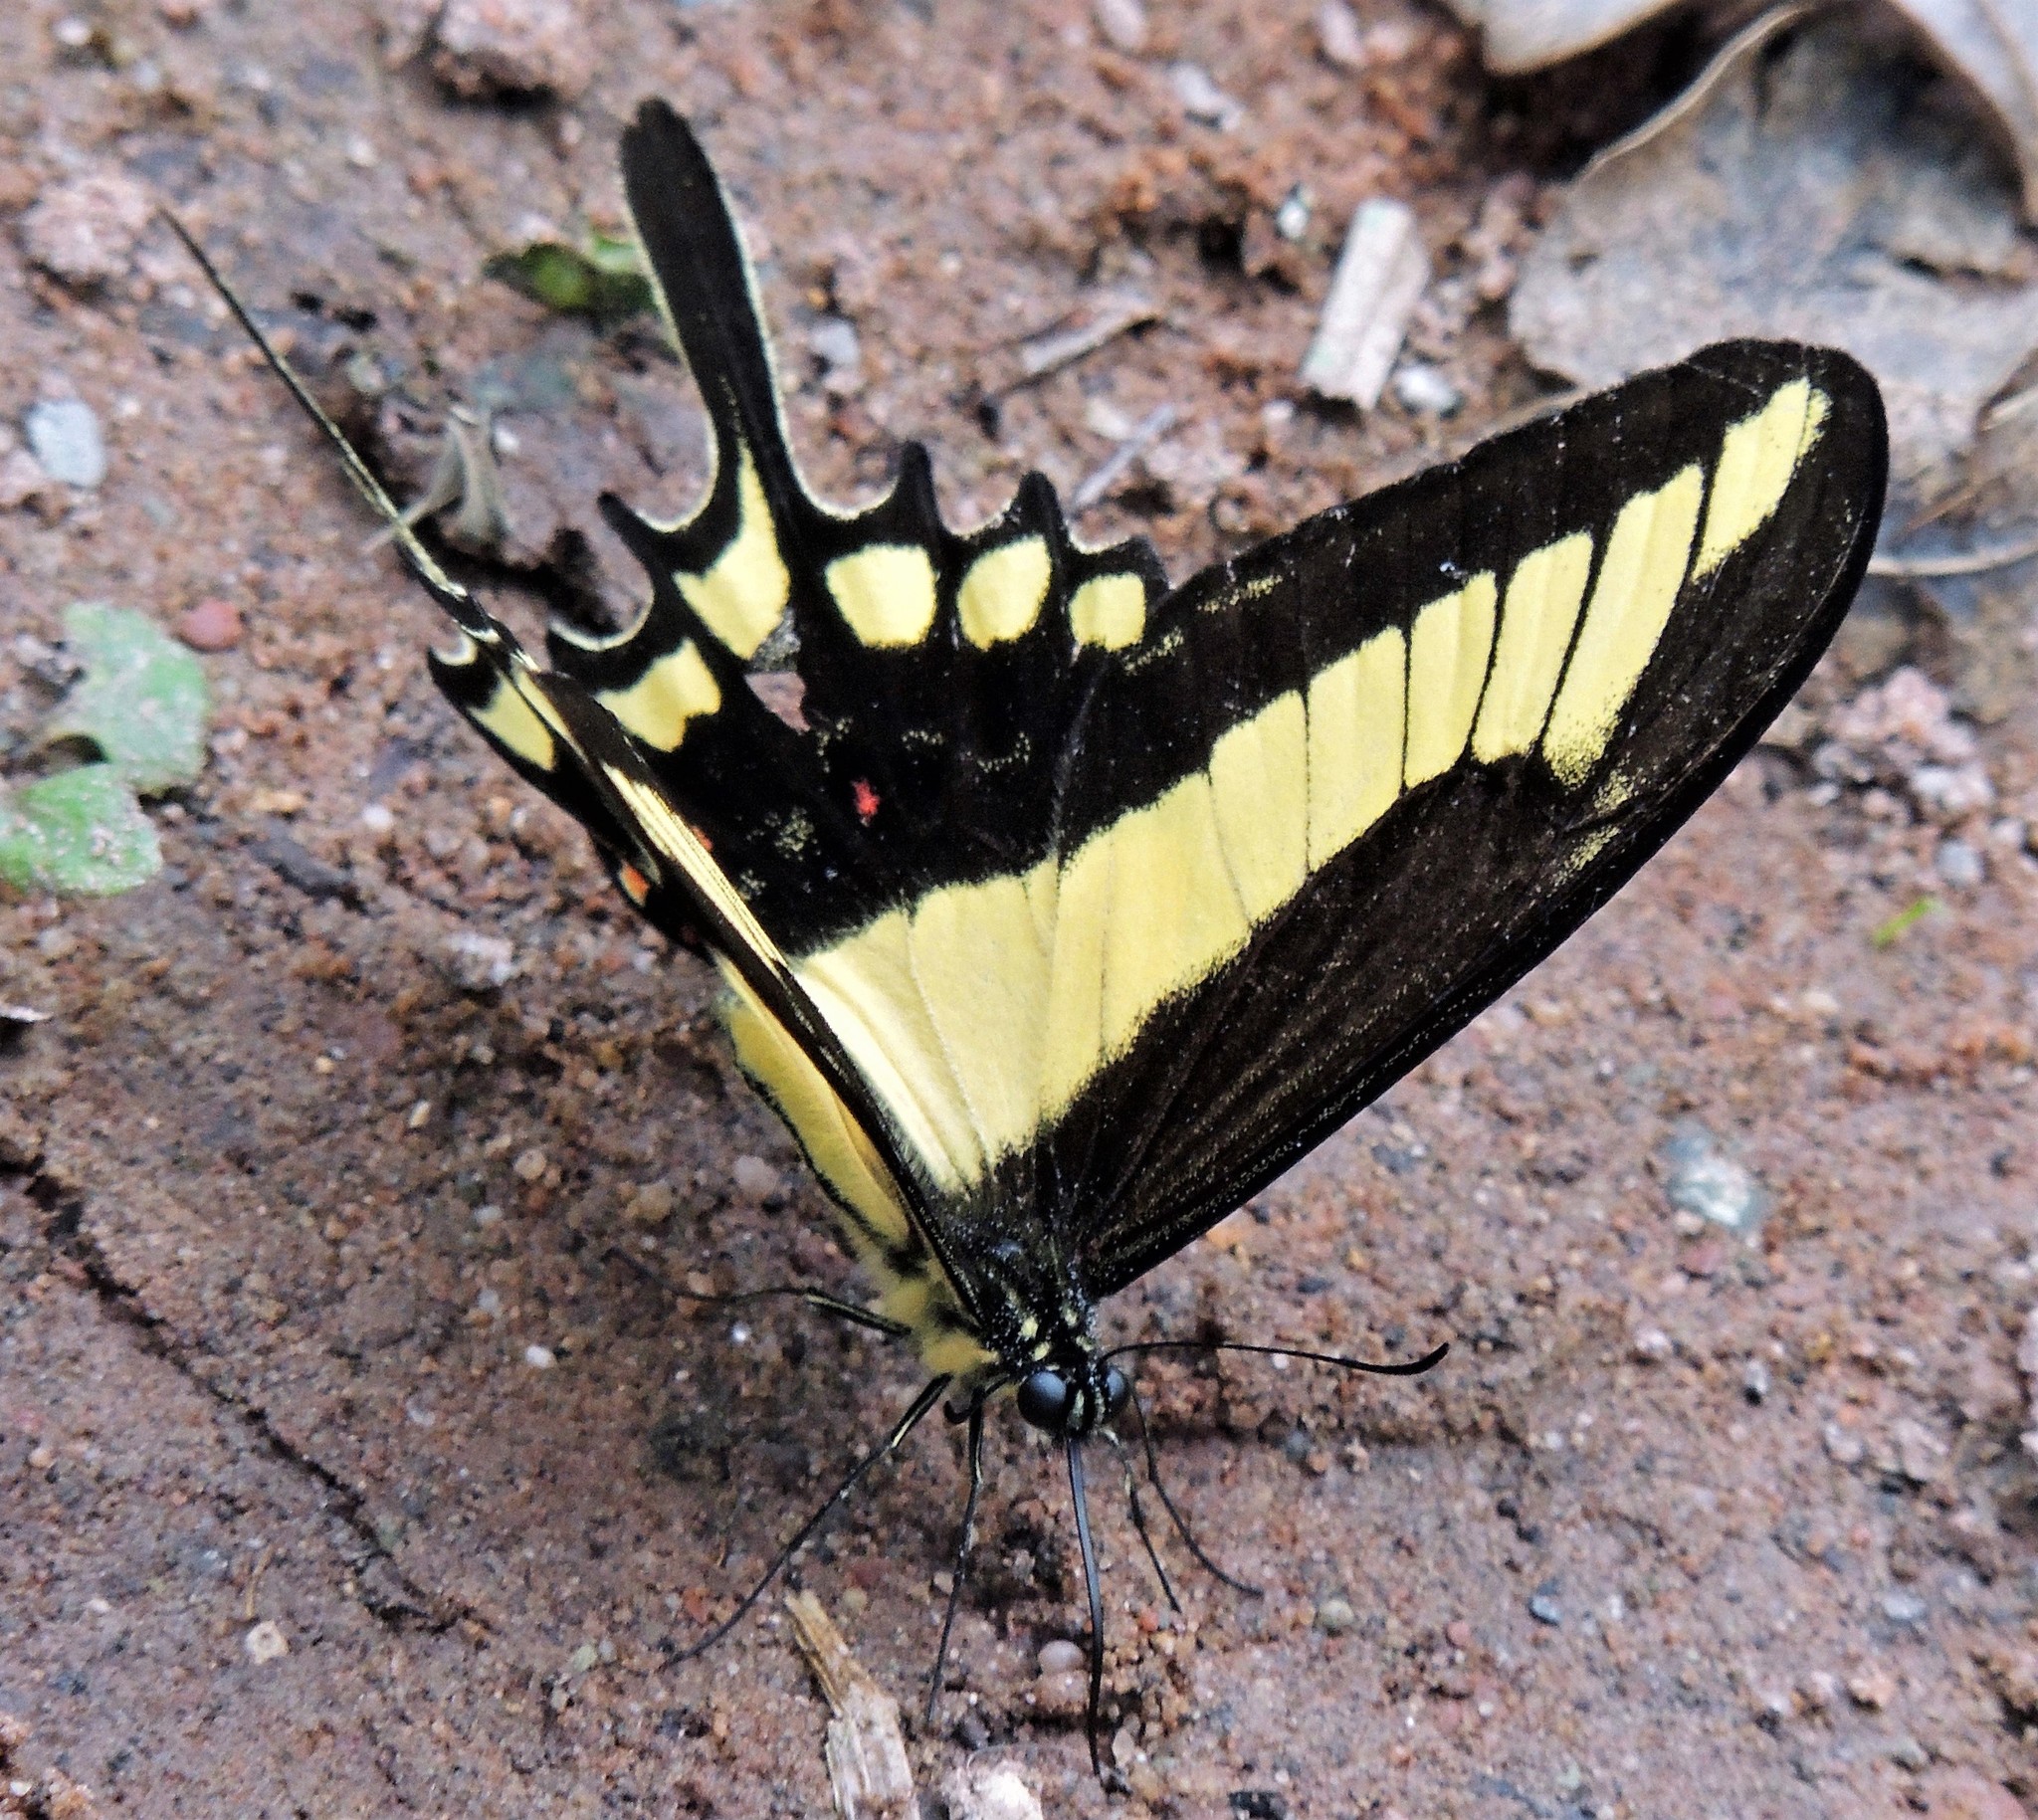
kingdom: Animalia
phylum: Arthropoda
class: Insecta
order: Lepidoptera
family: Papilionidae
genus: Heraclides
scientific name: Heraclides lamarchei
